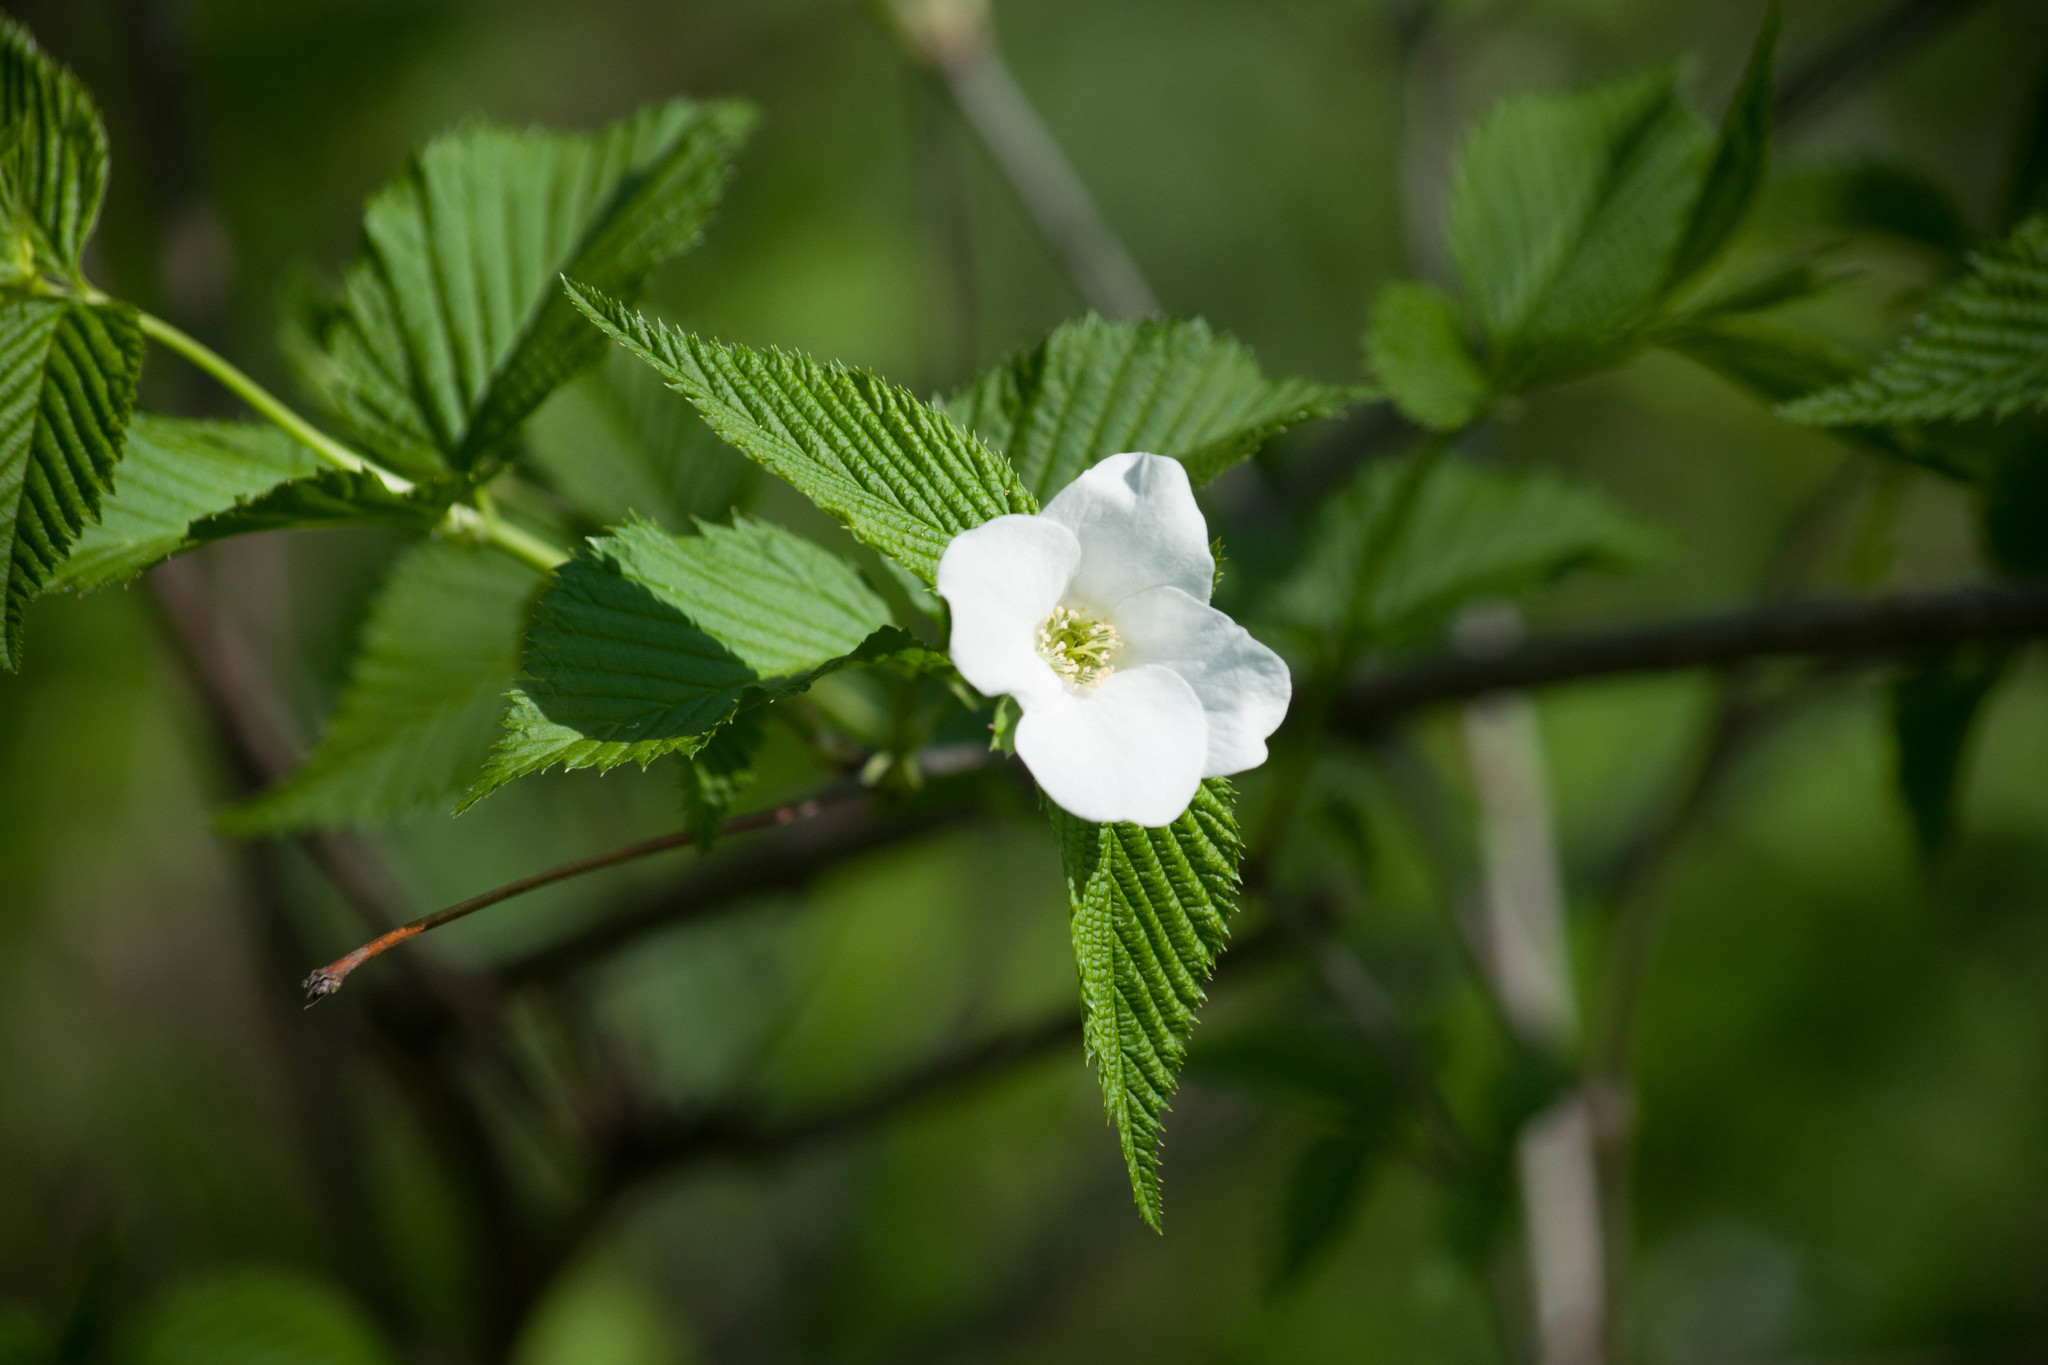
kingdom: Plantae
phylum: Tracheophyta
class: Magnoliopsida
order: Rosales
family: Rosaceae
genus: Rhodotypos
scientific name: Rhodotypos scandens
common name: Jetbead
